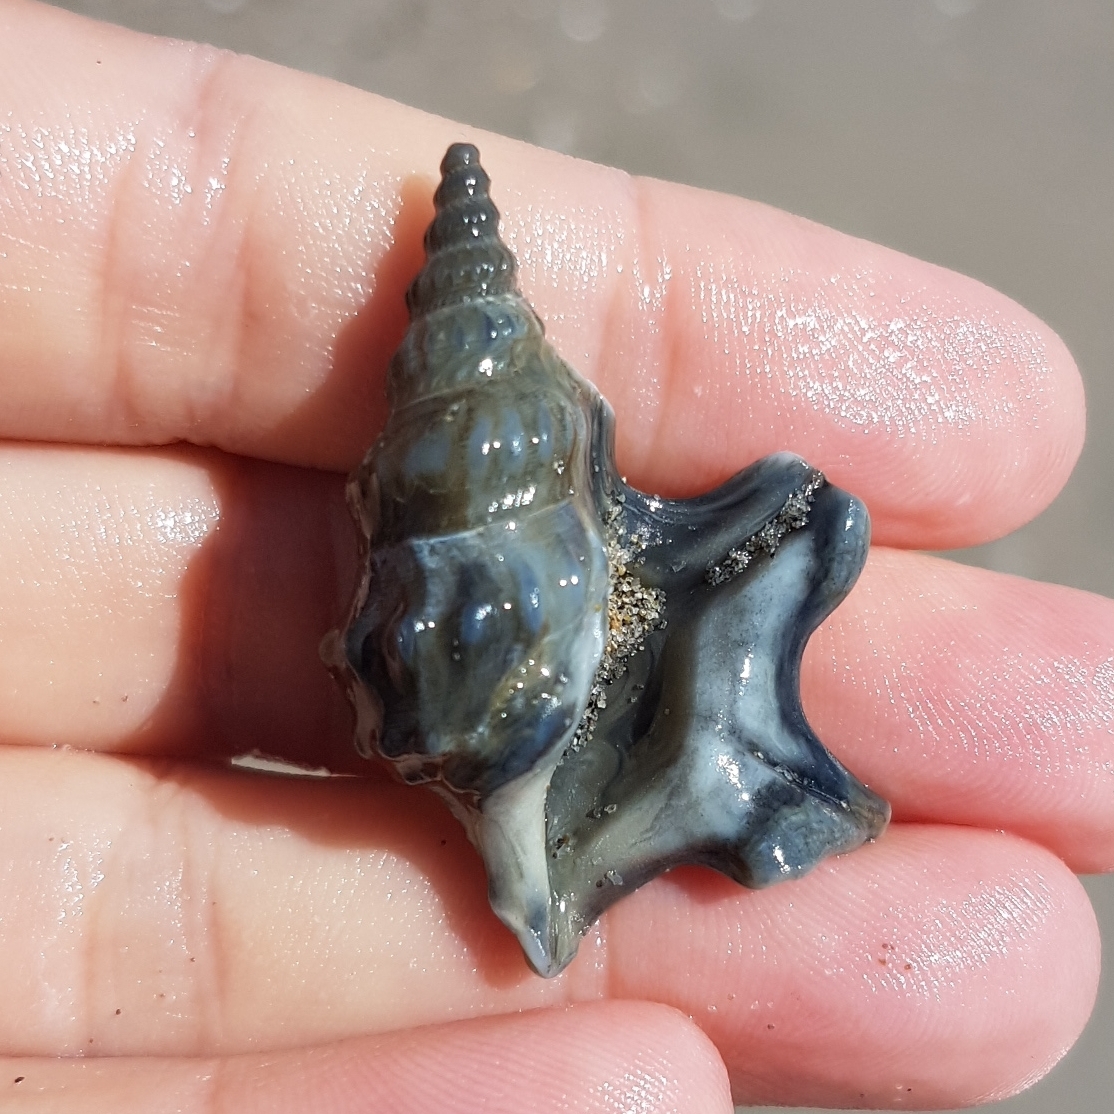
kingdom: Animalia
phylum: Mollusca
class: Gastropoda
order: Littorinimorpha
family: Aporrhaidae
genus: Aporrhais
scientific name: Aporrhais pespelecani
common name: Common pelican’s foot
